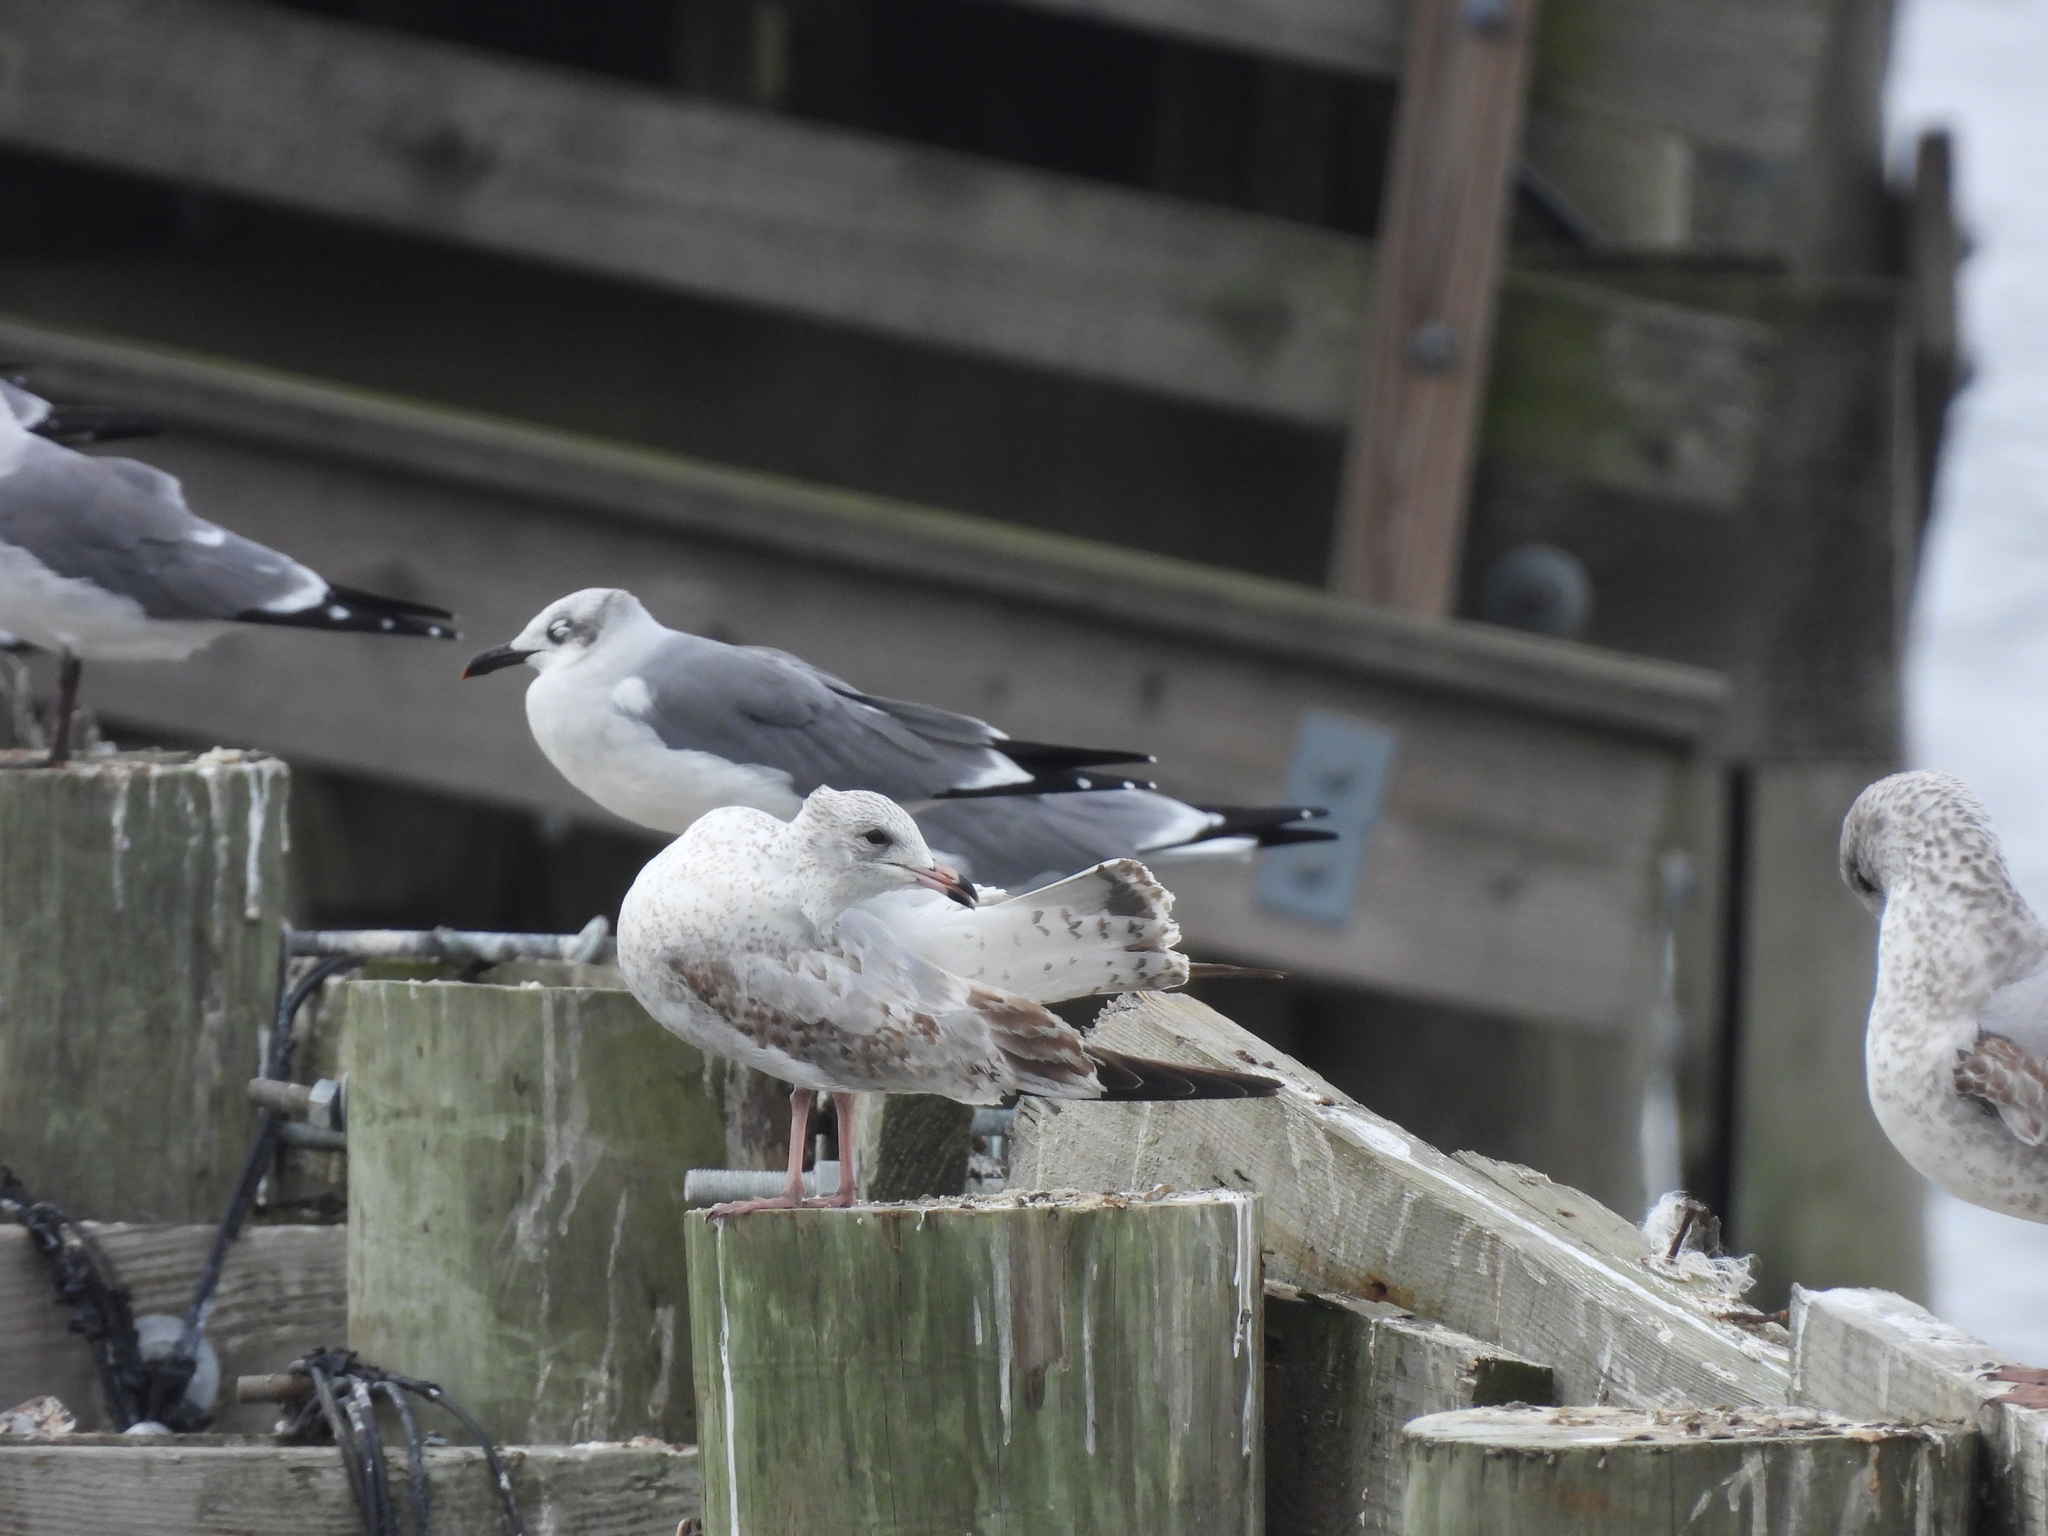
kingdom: Animalia
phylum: Chordata
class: Aves
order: Charadriiformes
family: Laridae
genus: Larus
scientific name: Larus delawarensis
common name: Ring-billed gull
